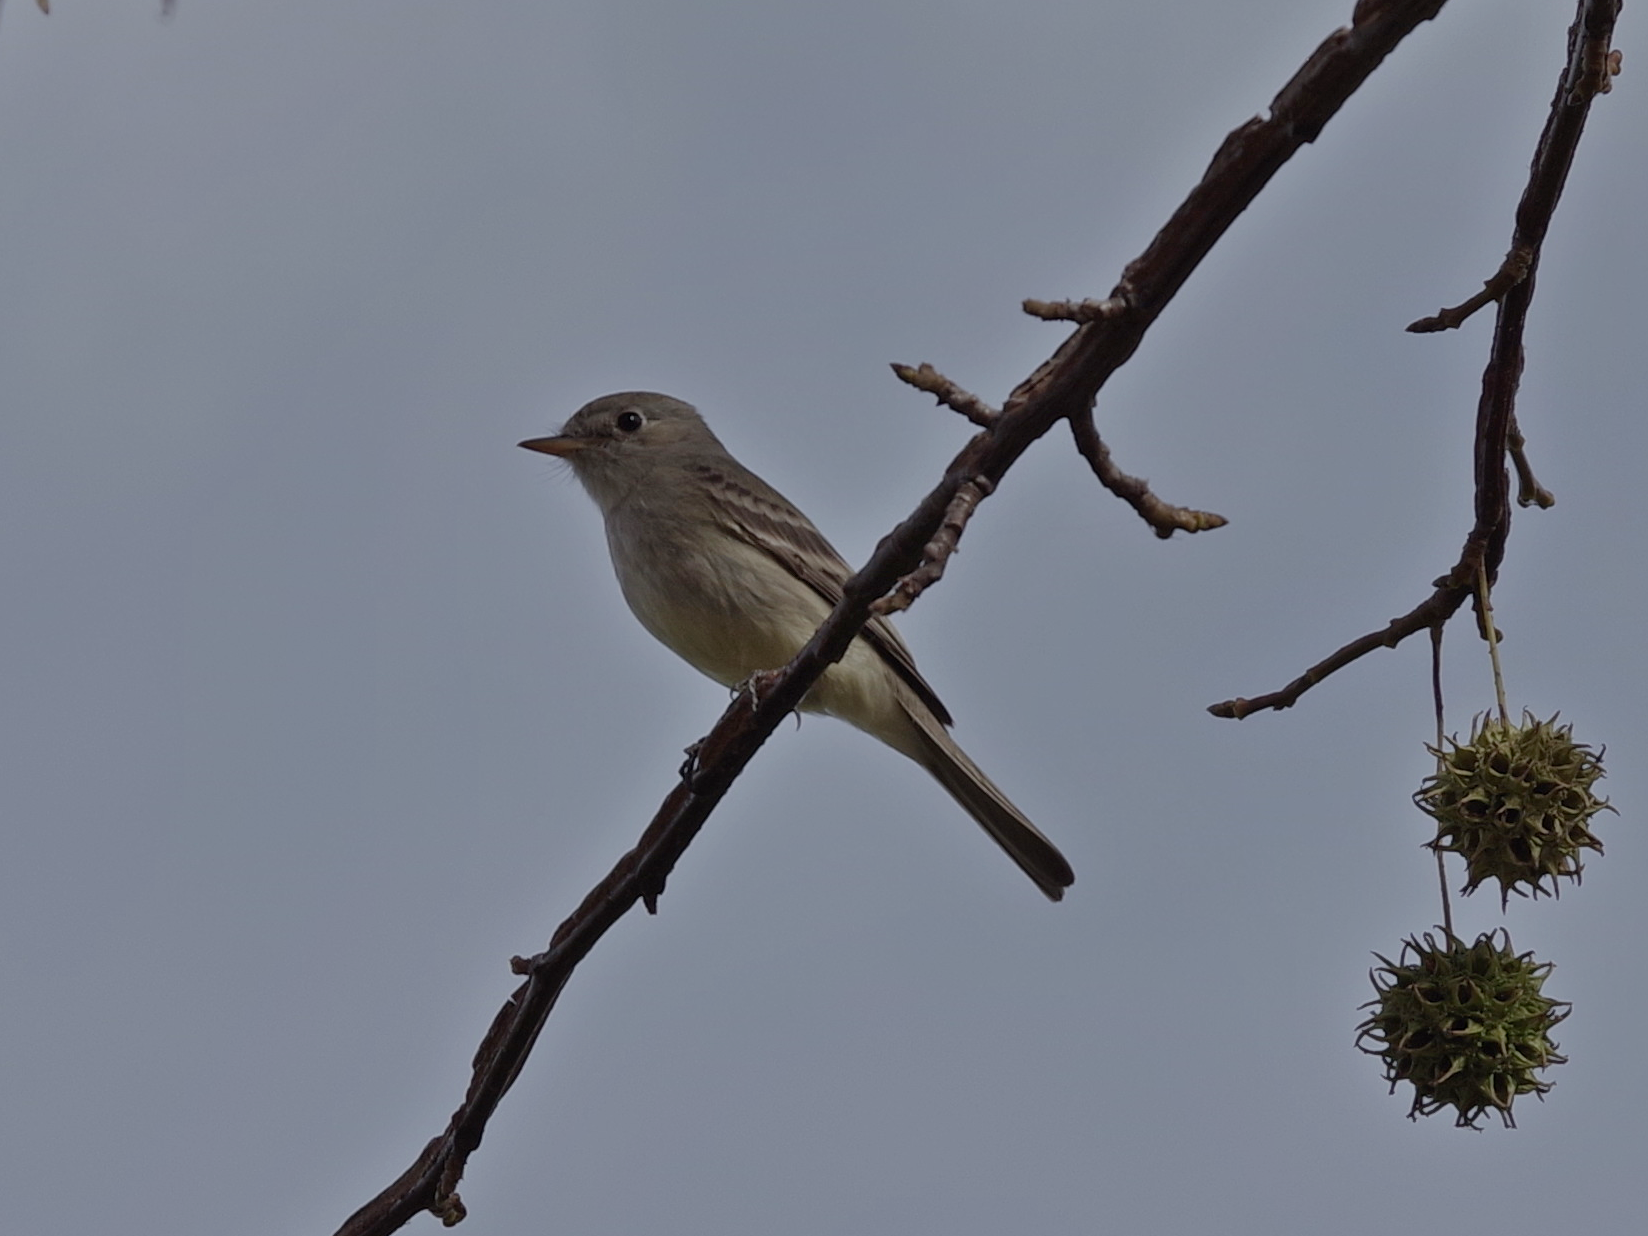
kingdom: Animalia
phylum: Chordata
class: Aves
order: Passeriformes
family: Tyrannidae
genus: Empidonax
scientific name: Empidonax wrightii
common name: Gray flycatcher
